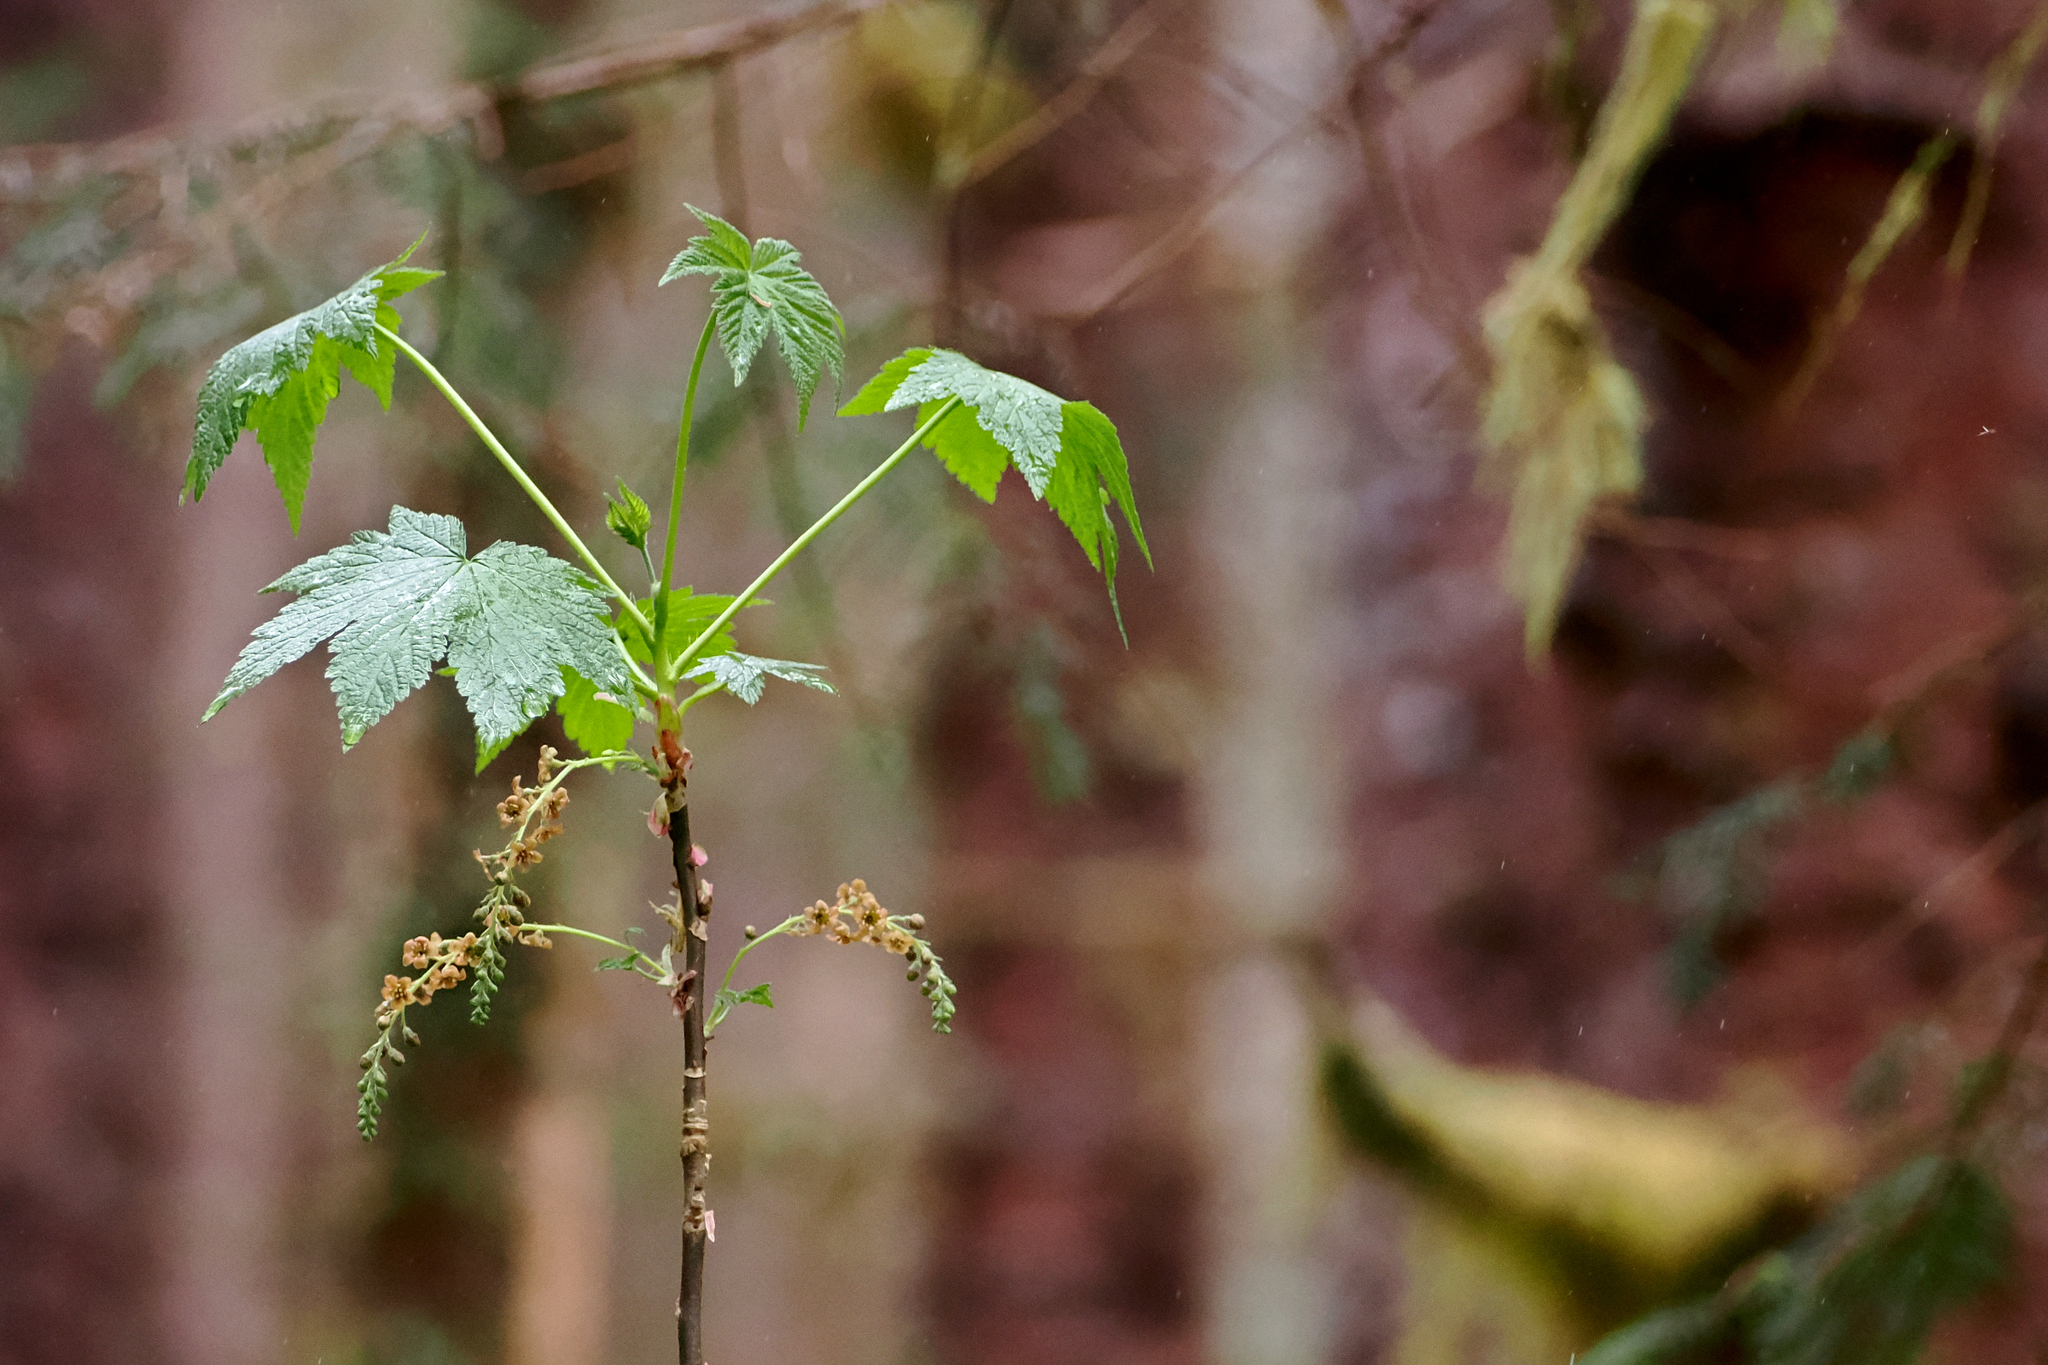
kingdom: Plantae
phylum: Tracheophyta
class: Magnoliopsida
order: Saxifragales
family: Grossulariaceae
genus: Ribes
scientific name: Ribes bracteosum
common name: California black currant
